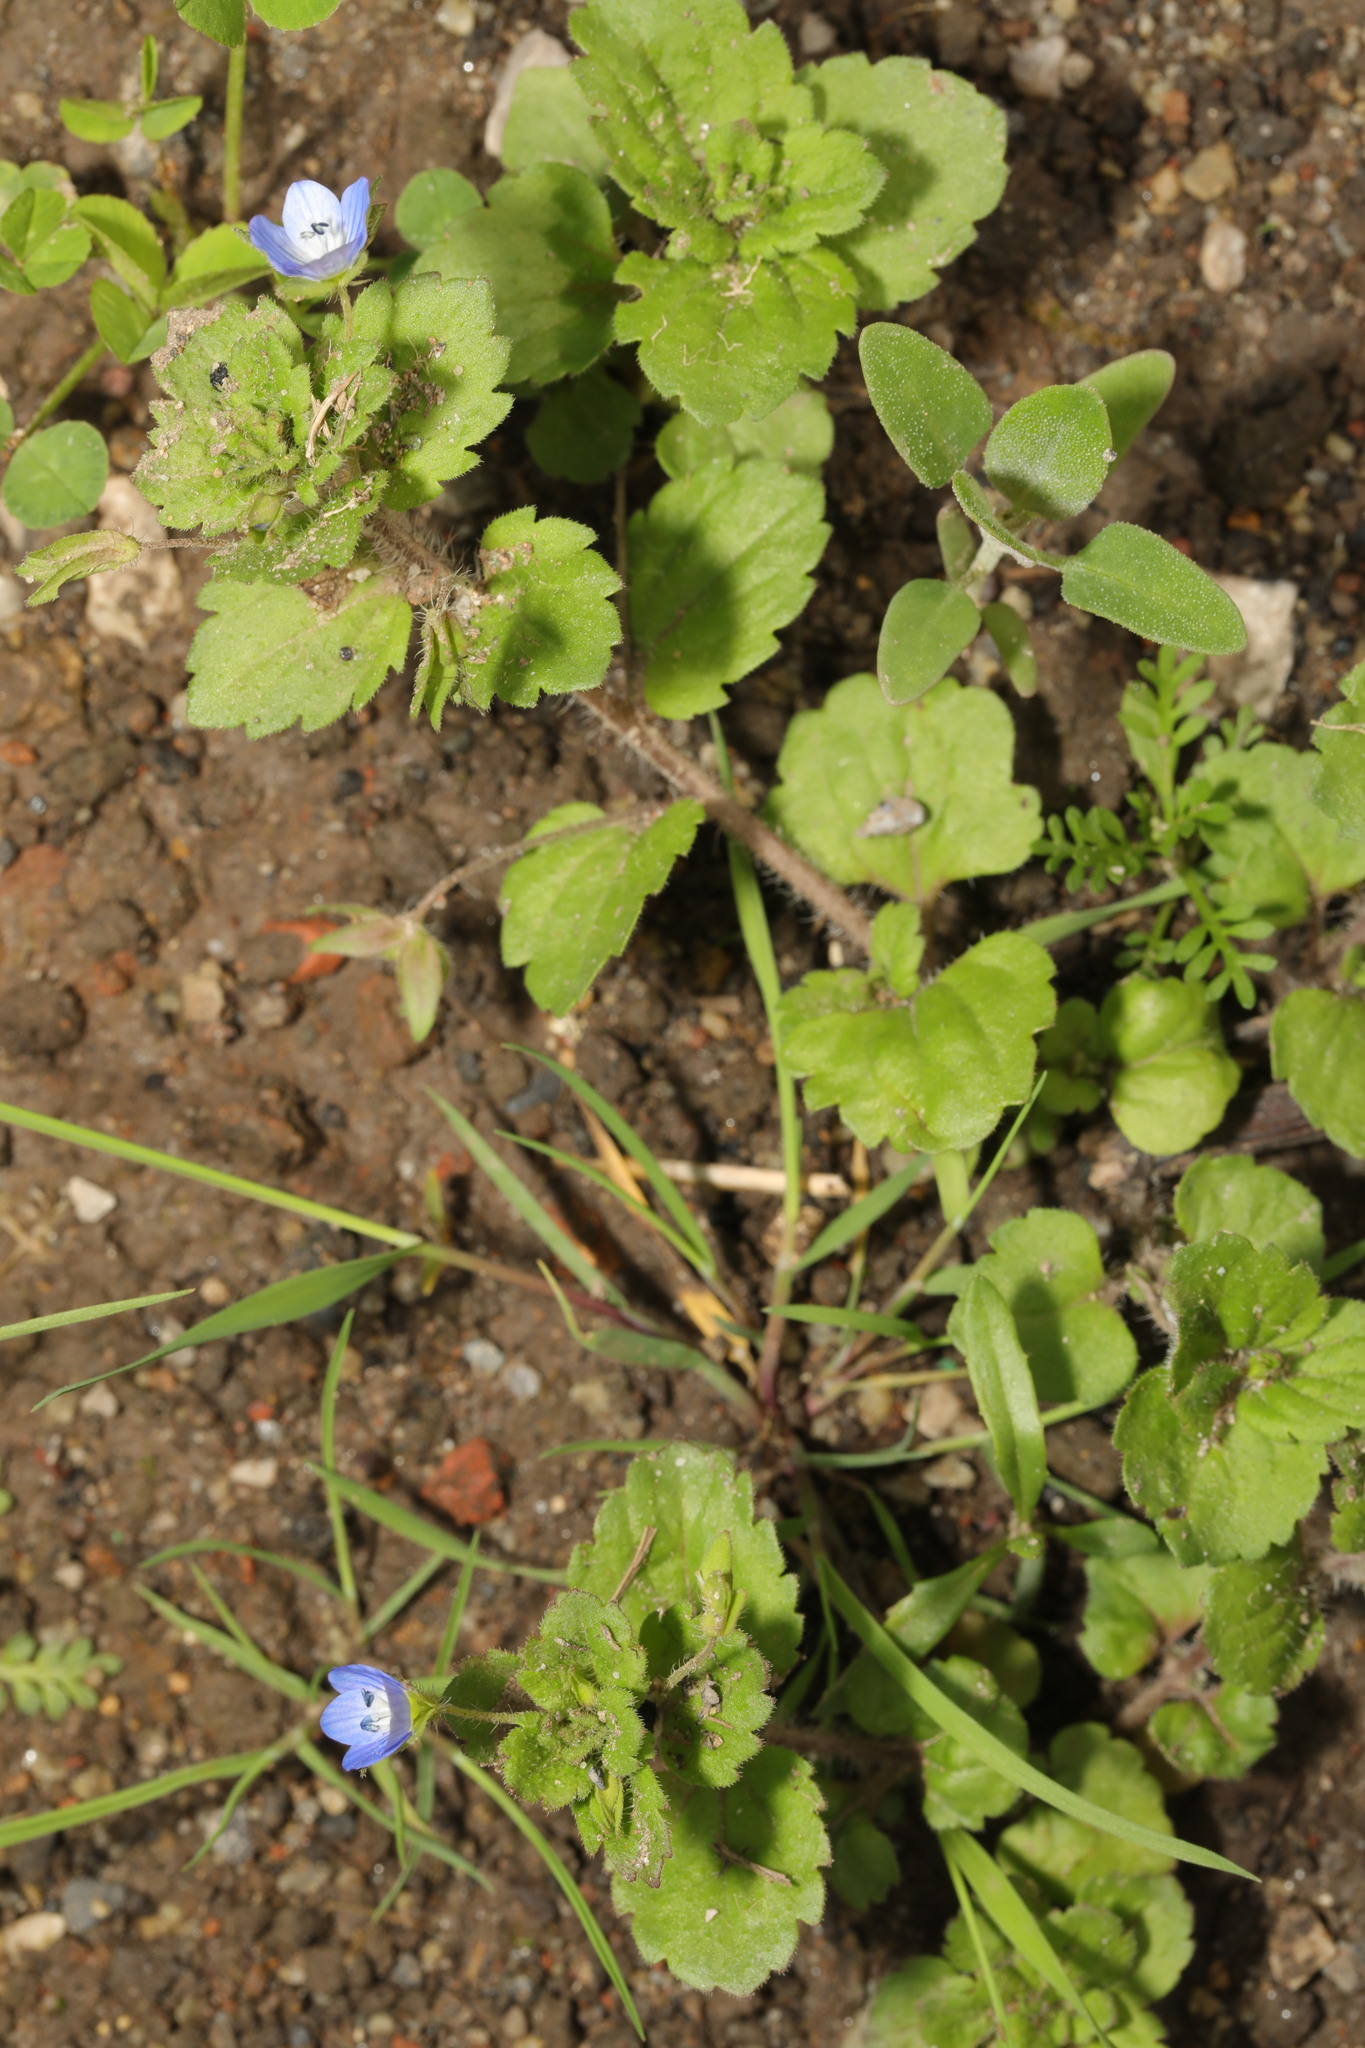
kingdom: Plantae
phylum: Tracheophyta
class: Magnoliopsida
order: Lamiales
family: Plantaginaceae
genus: Veronica
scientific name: Veronica persica
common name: Common field-speedwell
